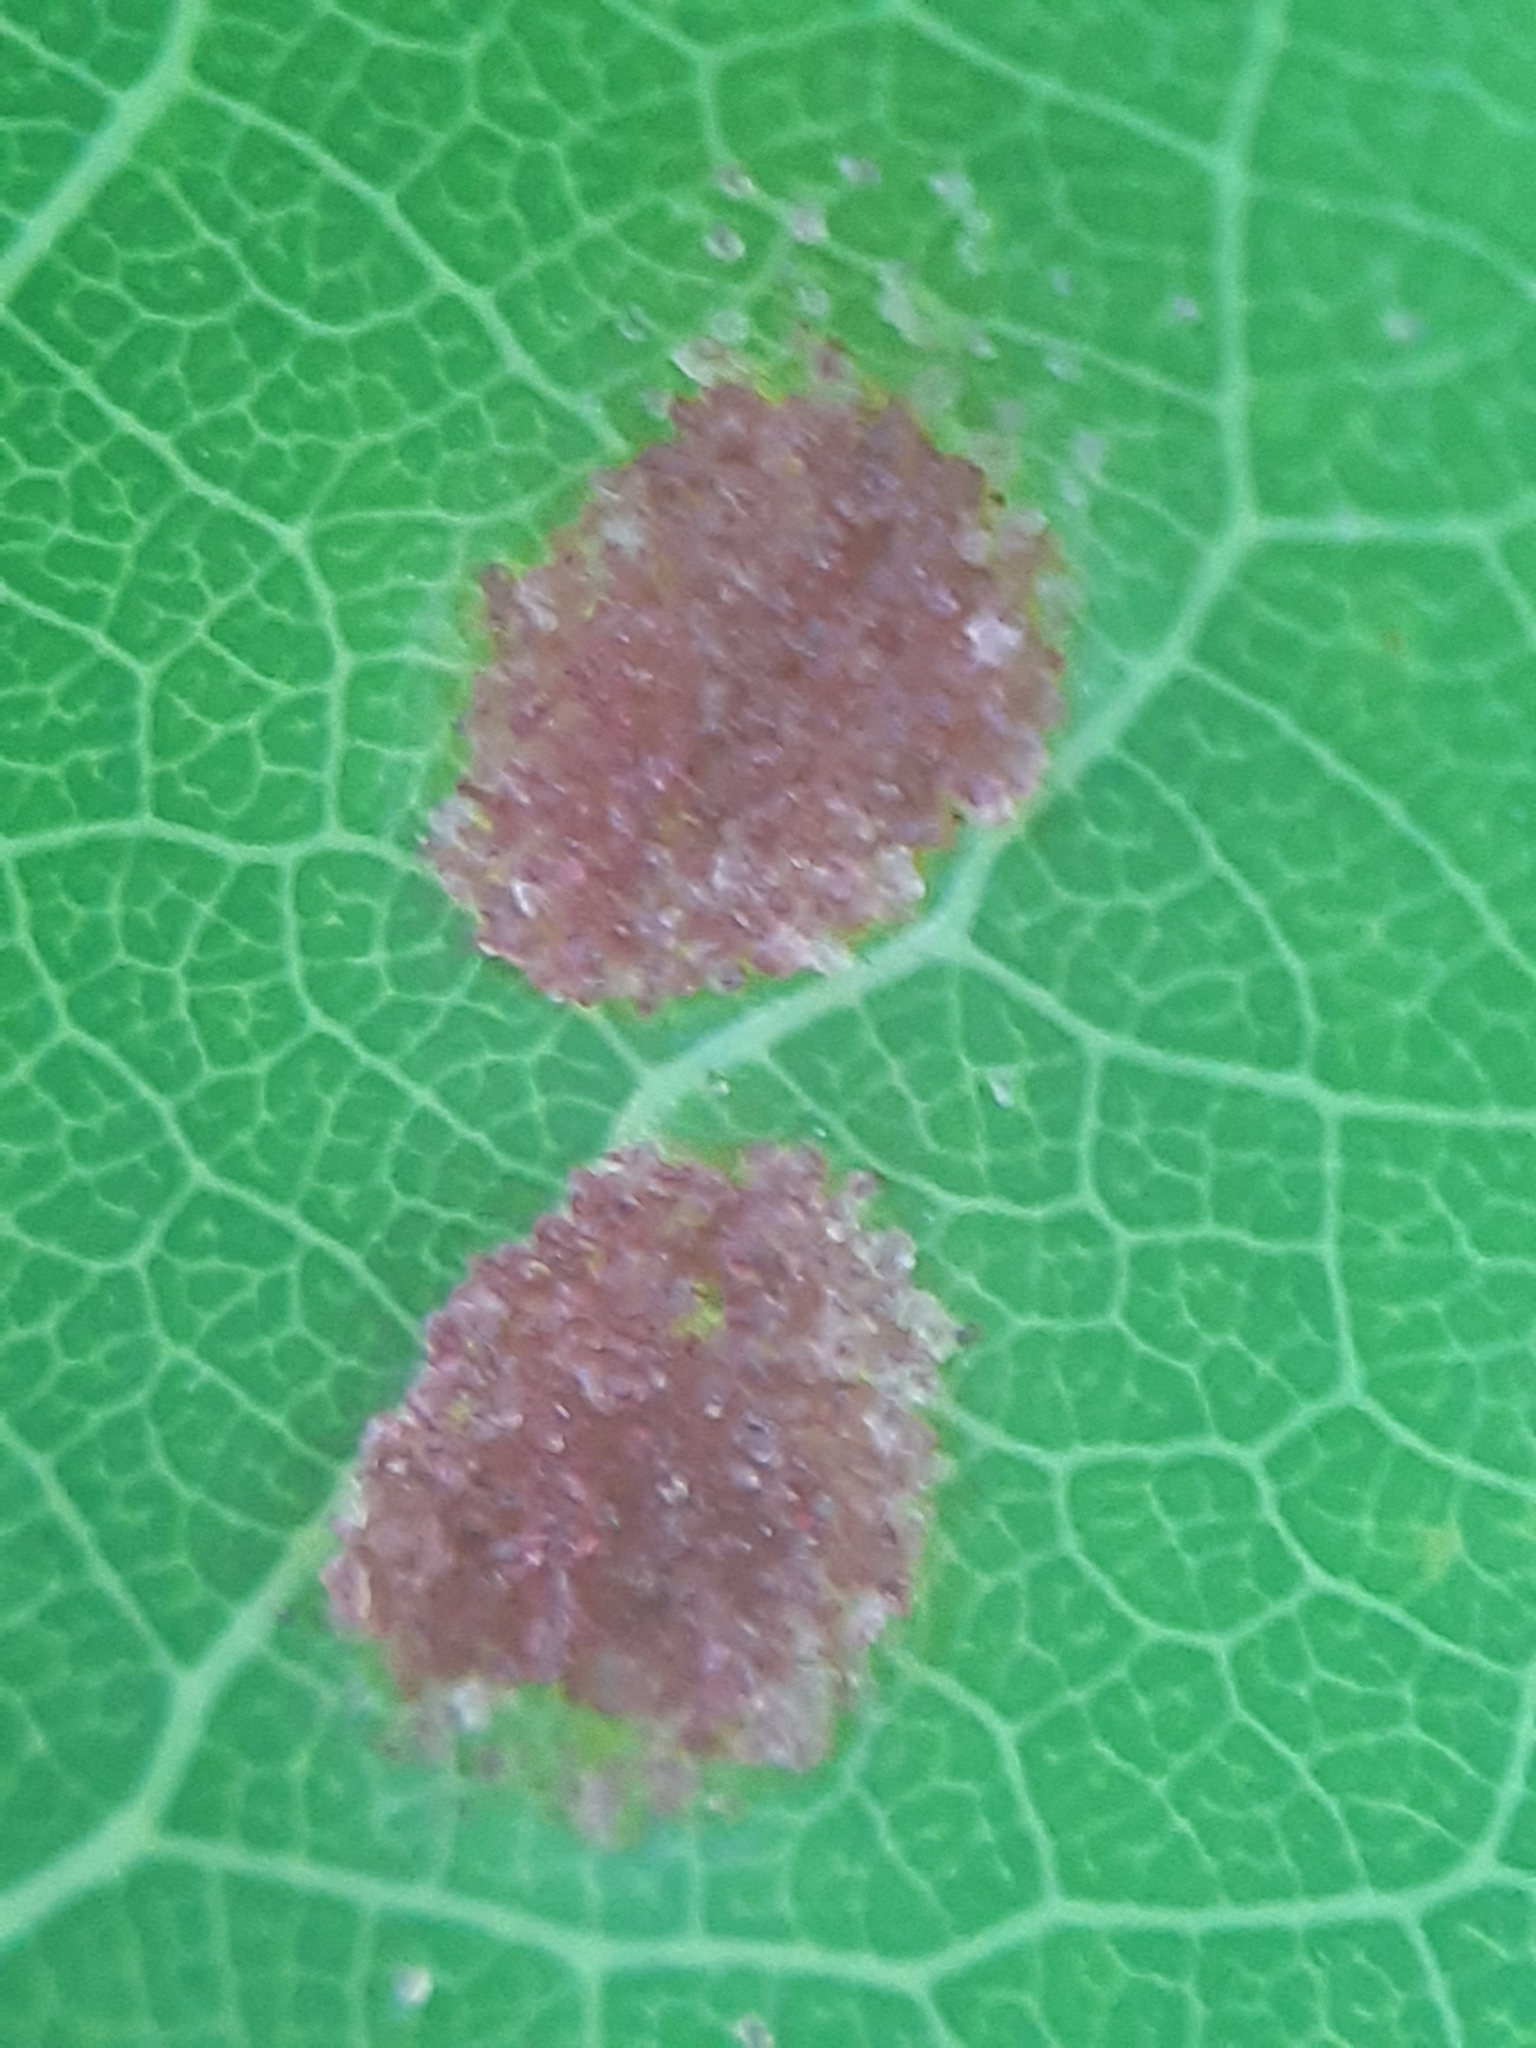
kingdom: Animalia
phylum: Arthropoda
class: Arachnida
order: Trombidiformes
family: Eriophyidae
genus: Aceria
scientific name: Aceria varia
